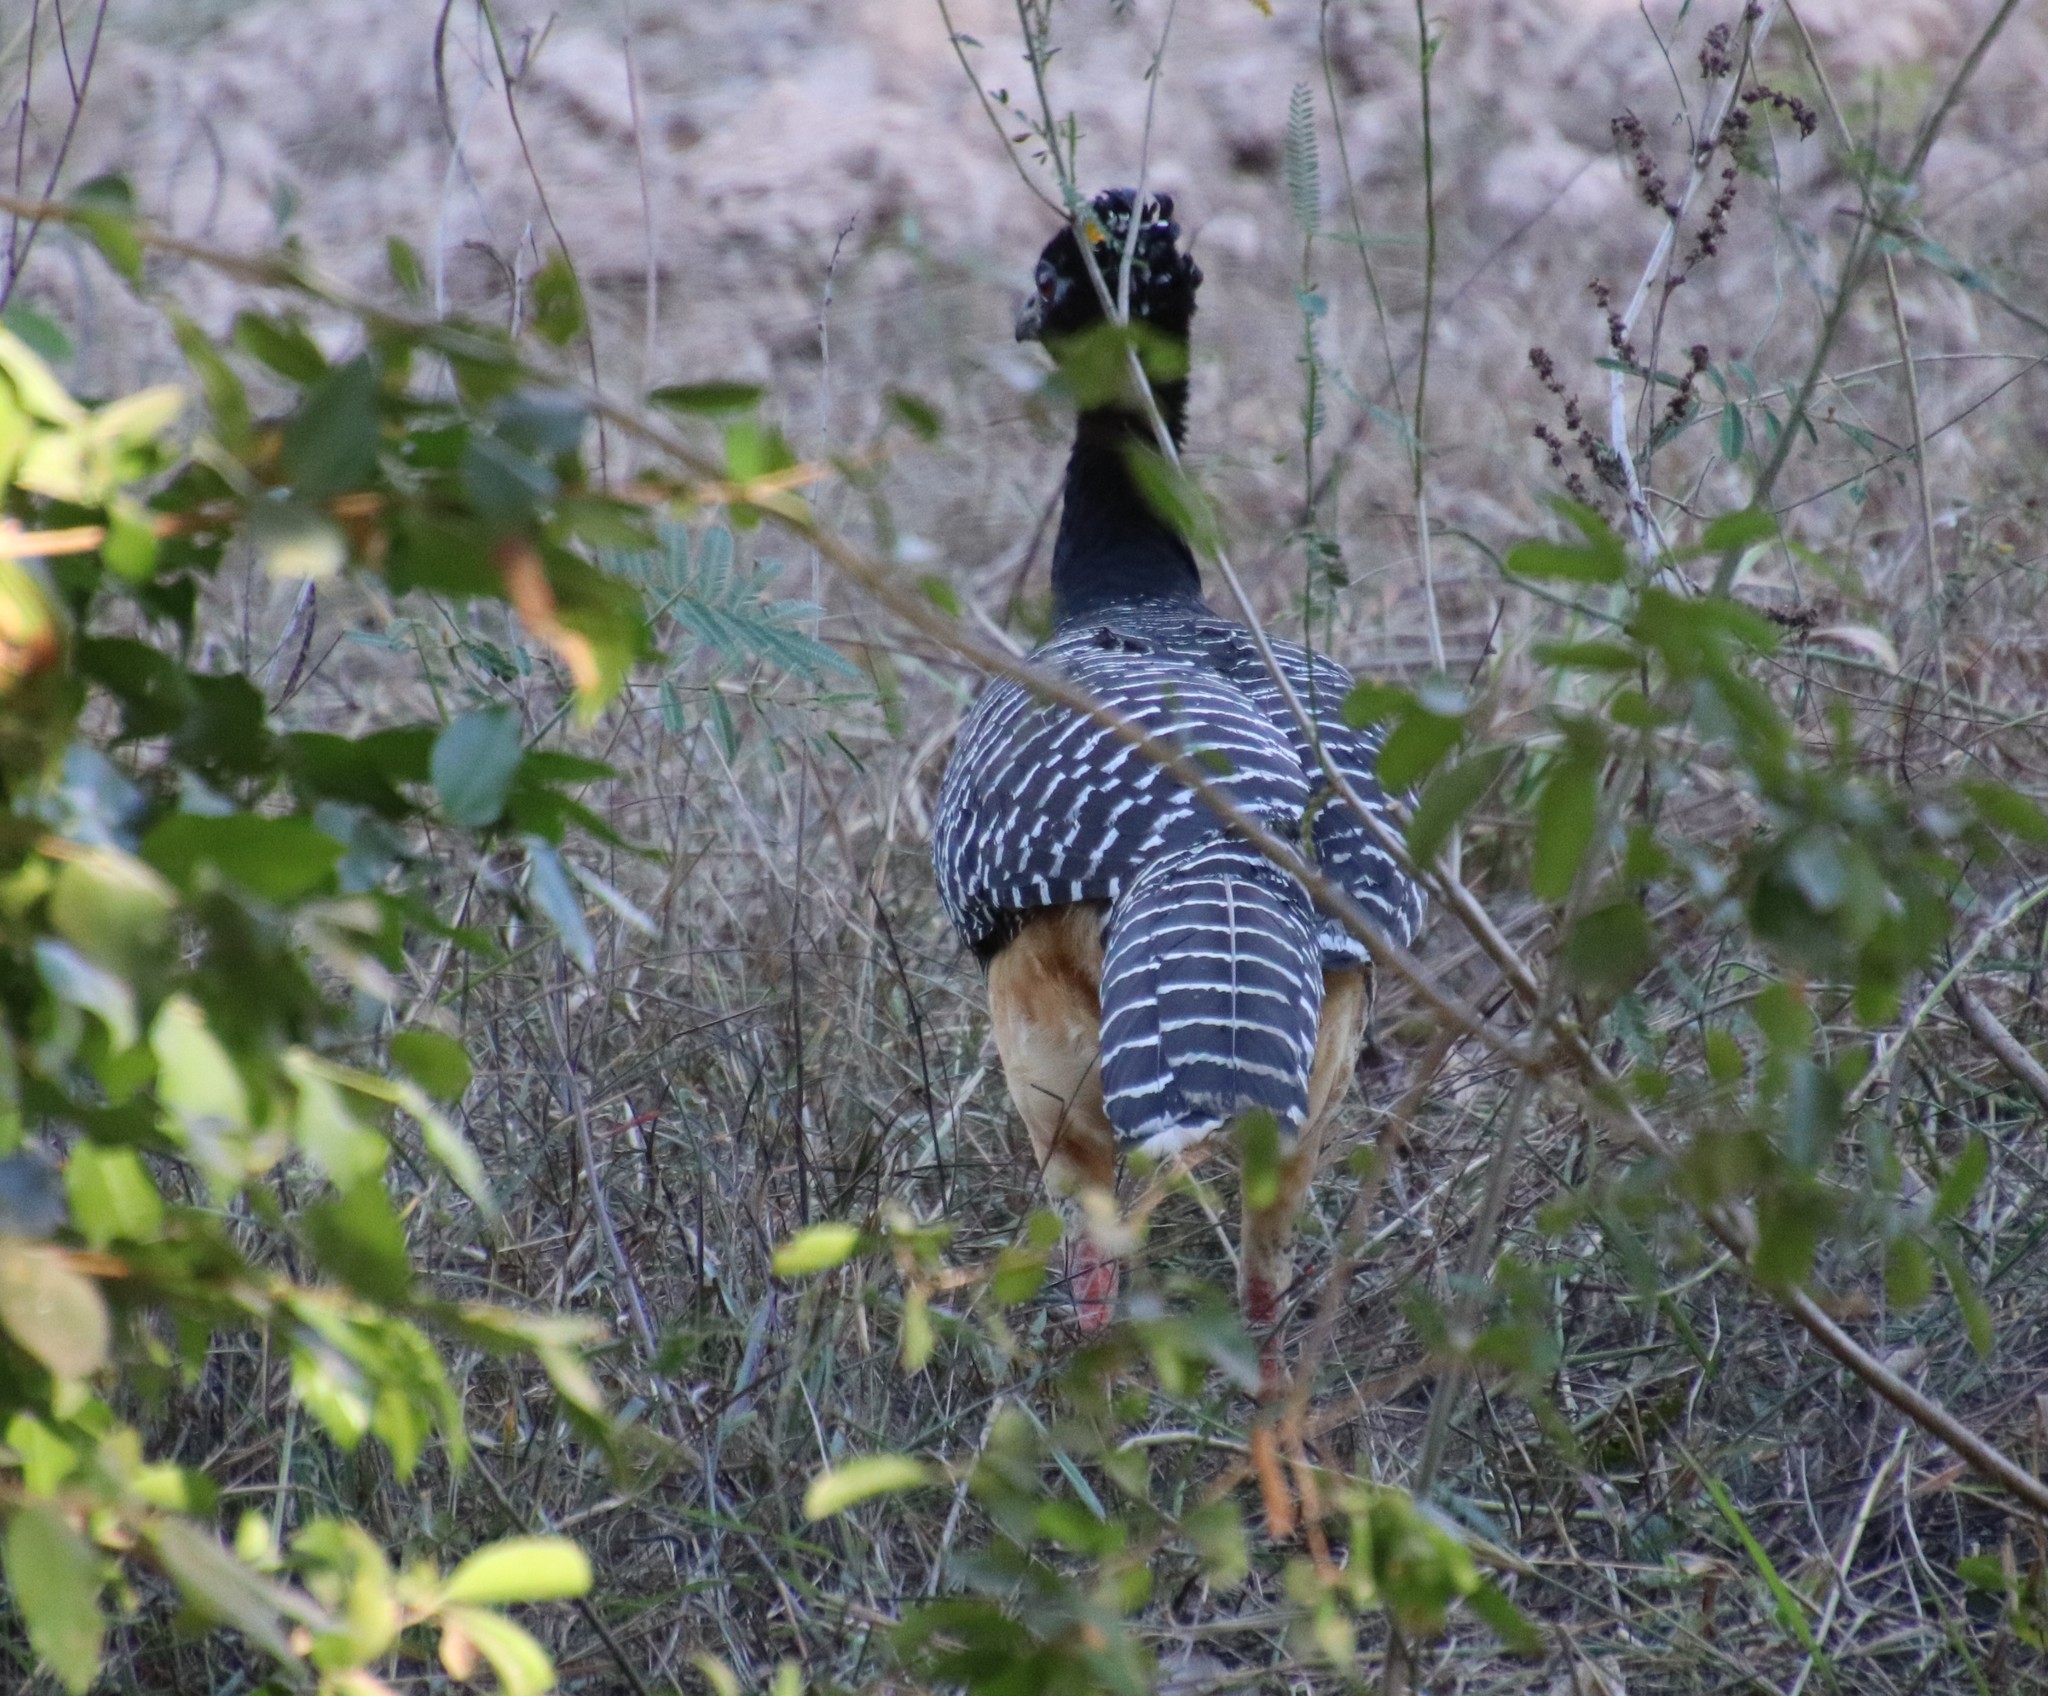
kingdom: Animalia
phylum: Chordata
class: Aves
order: Galliformes
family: Cracidae
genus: Crax
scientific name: Crax fasciolata
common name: Bare-faced curassow
